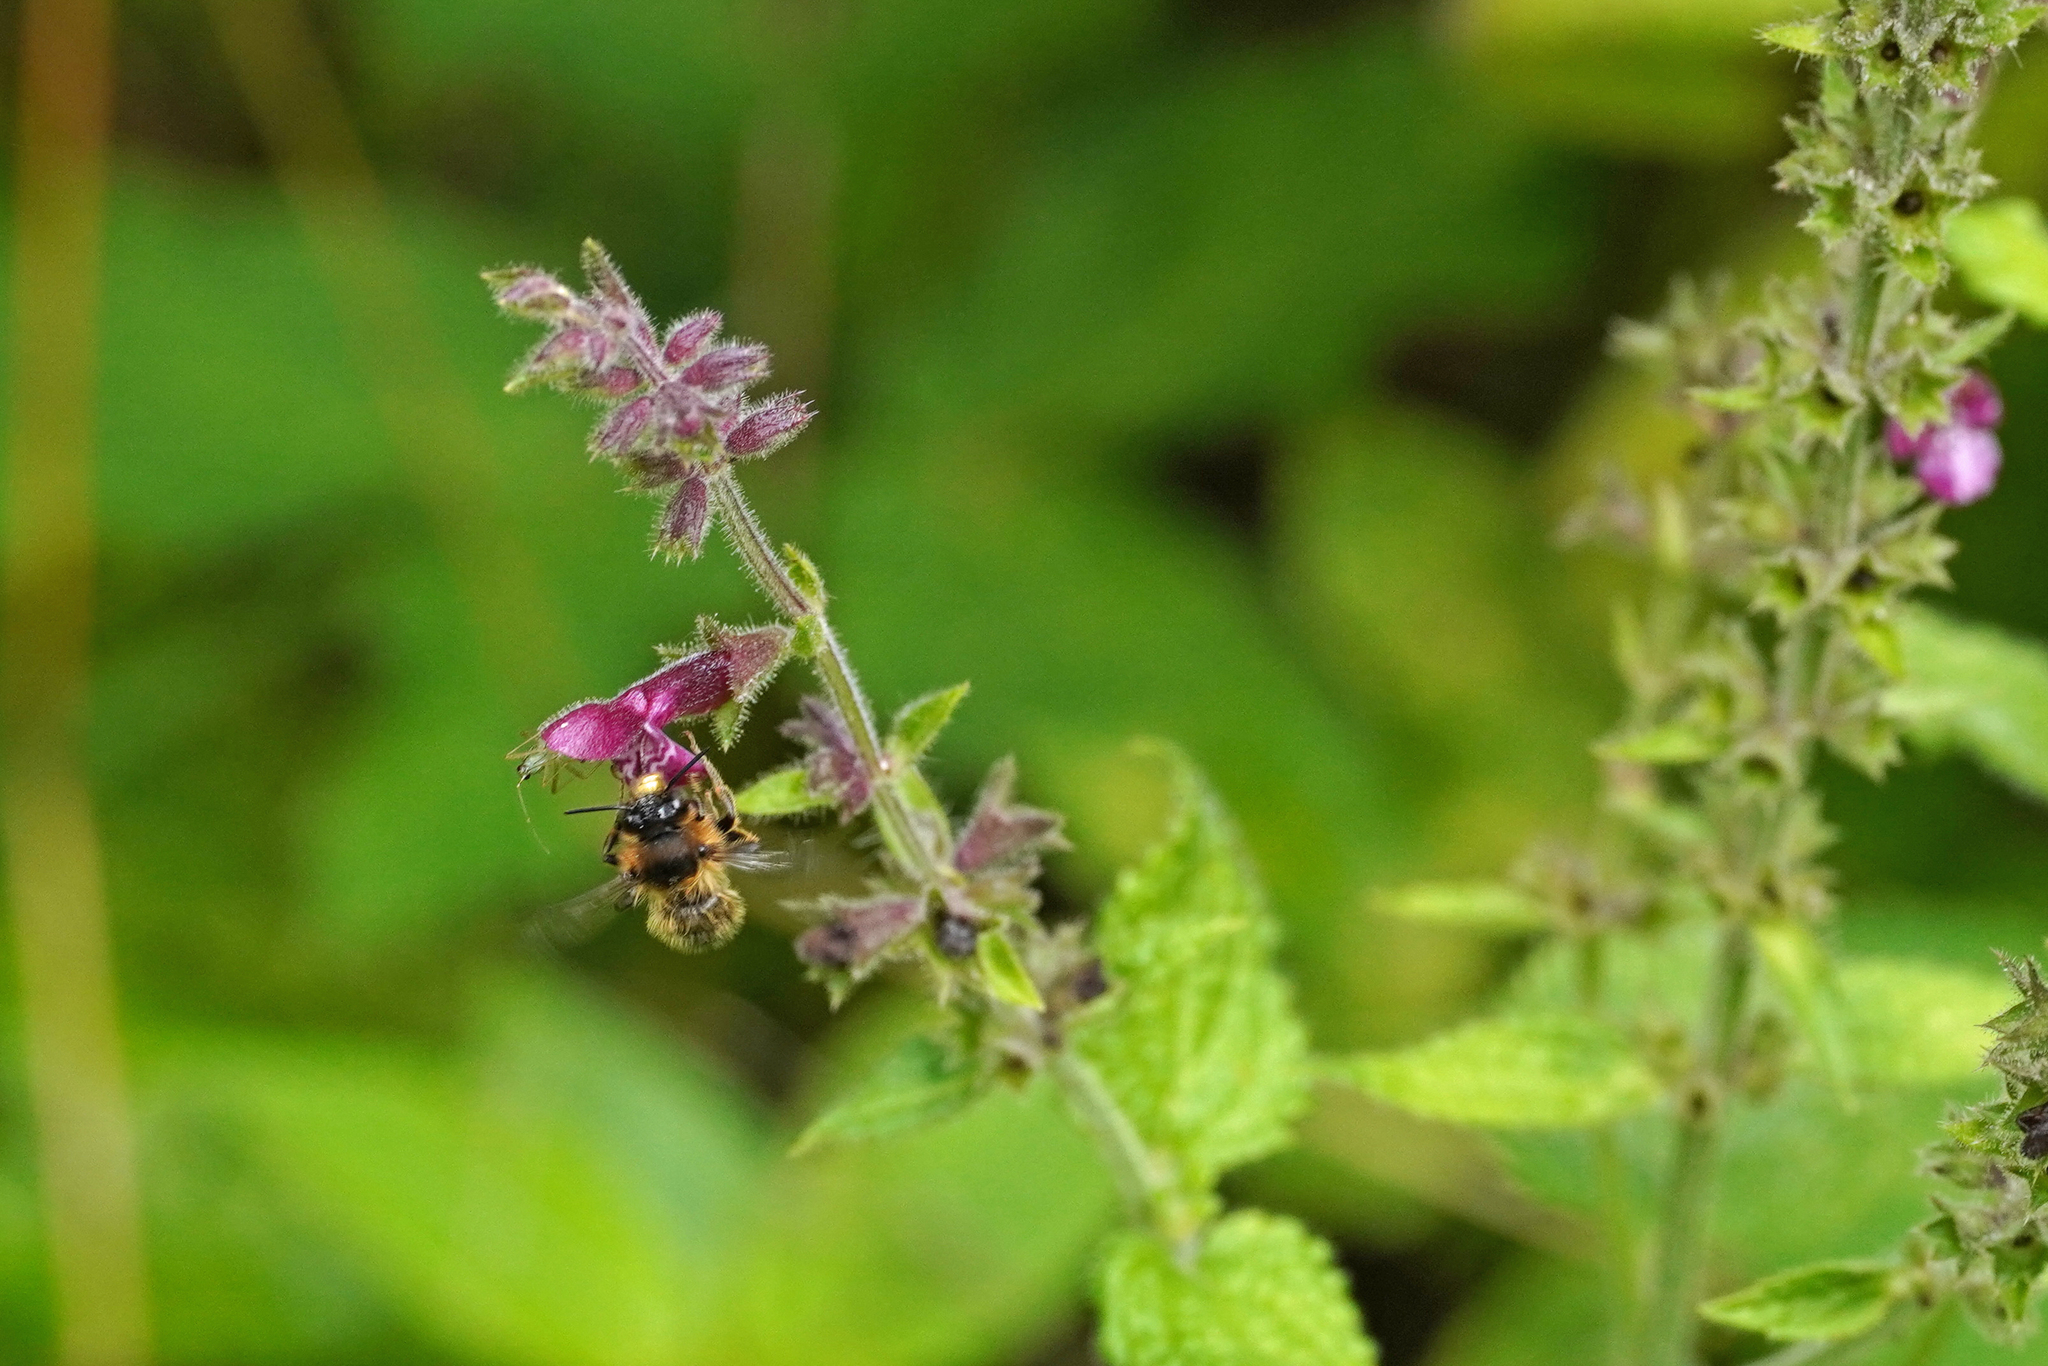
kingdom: Animalia
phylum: Arthropoda
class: Insecta
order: Hymenoptera
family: Apidae
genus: Anthophora
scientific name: Anthophora furcata
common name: Fork-tailed flower bee
